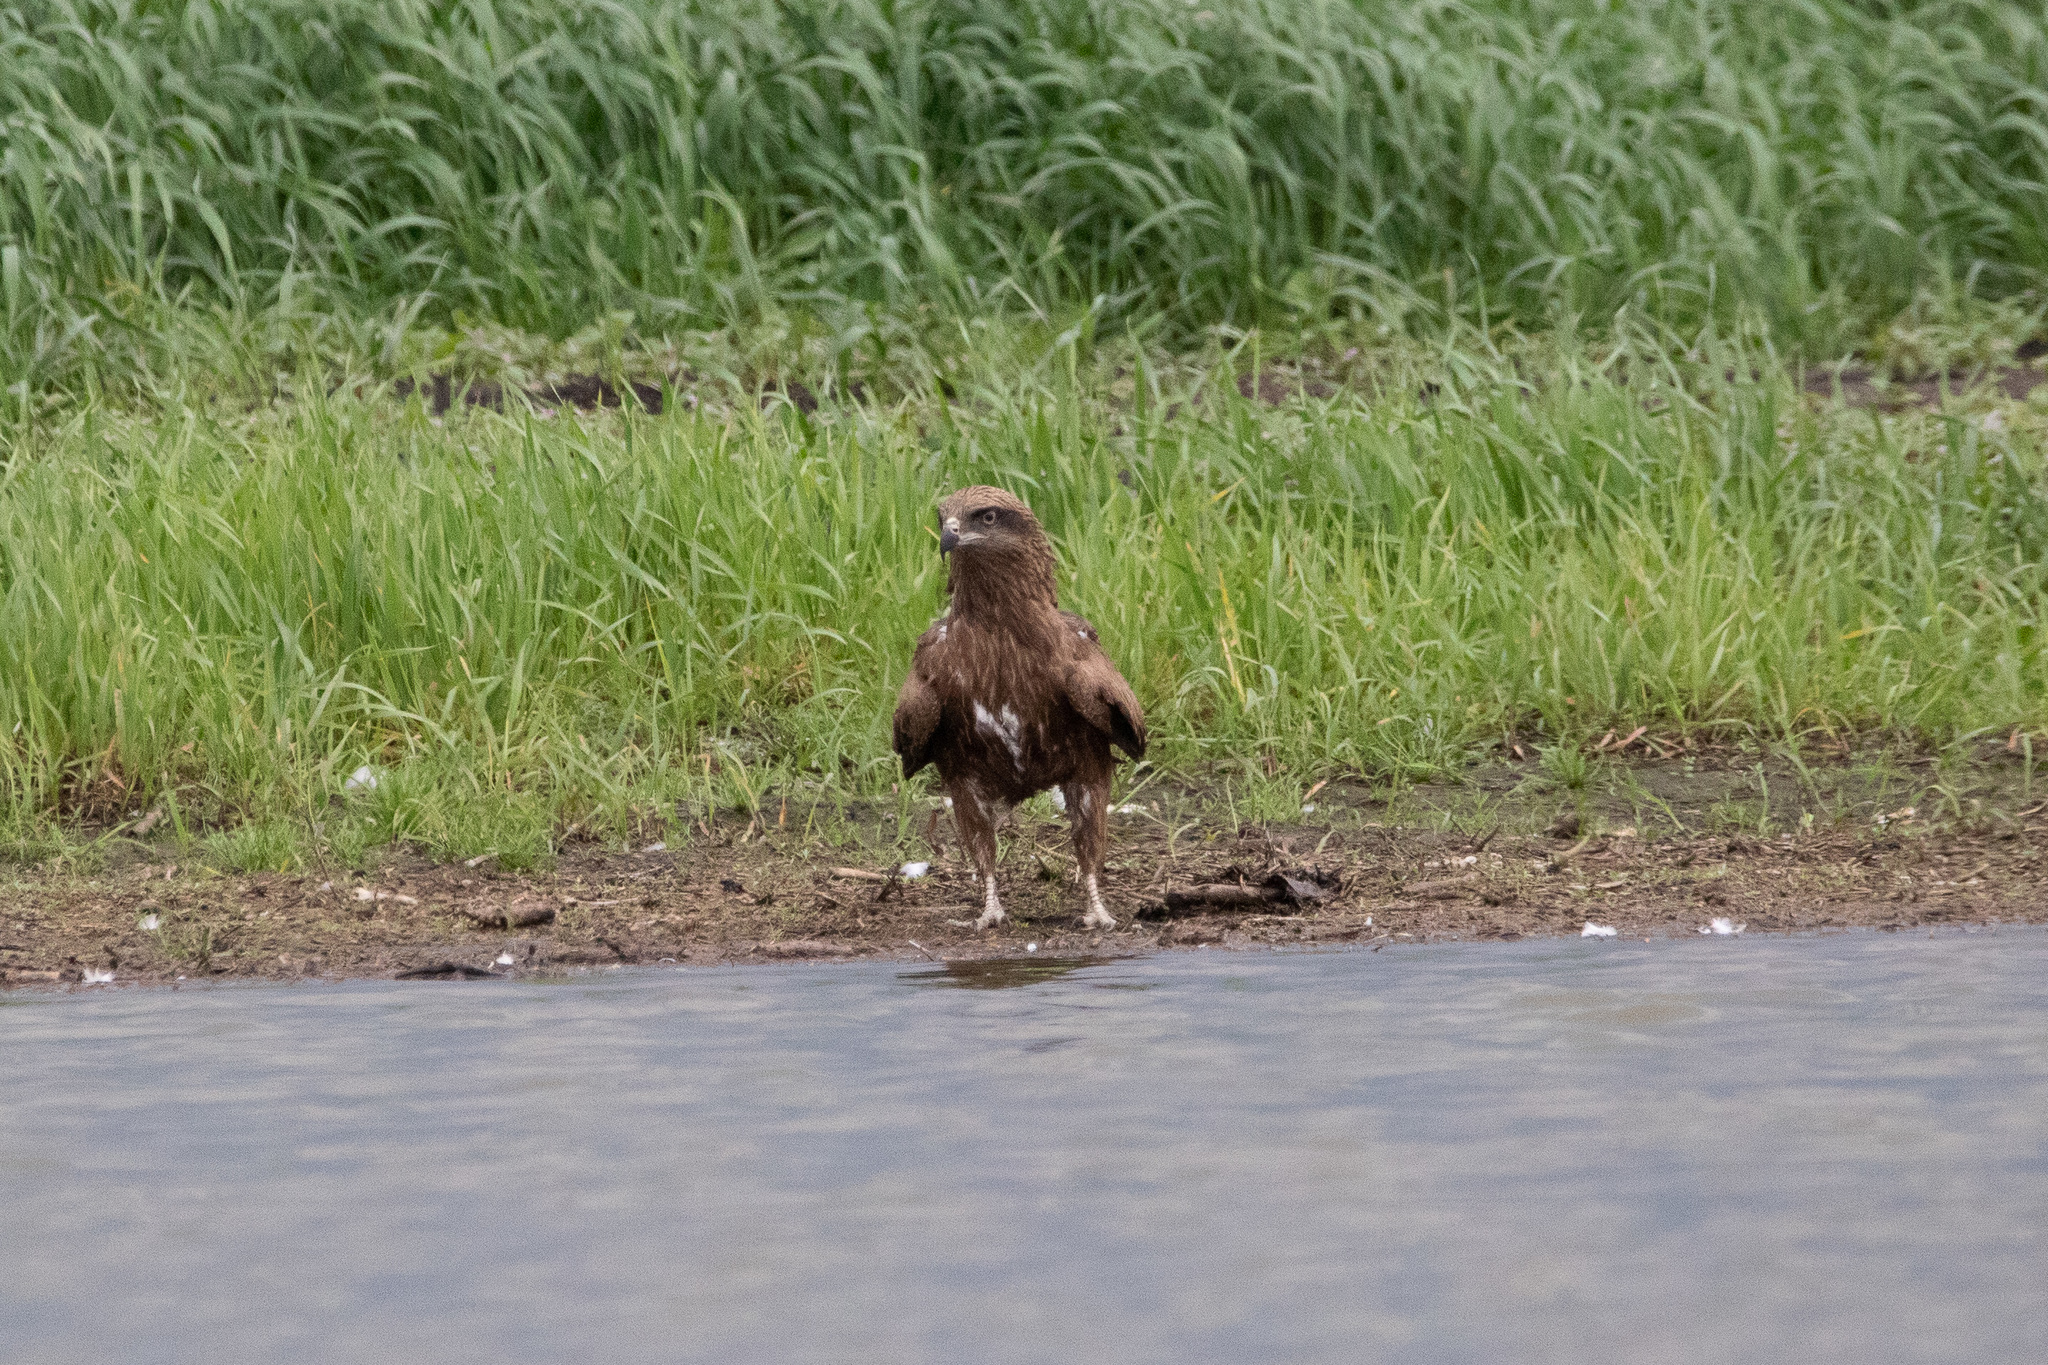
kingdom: Animalia
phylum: Chordata
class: Aves
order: Accipitriformes
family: Accipitridae
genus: Milvus
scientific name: Milvus migrans
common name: Black kite
